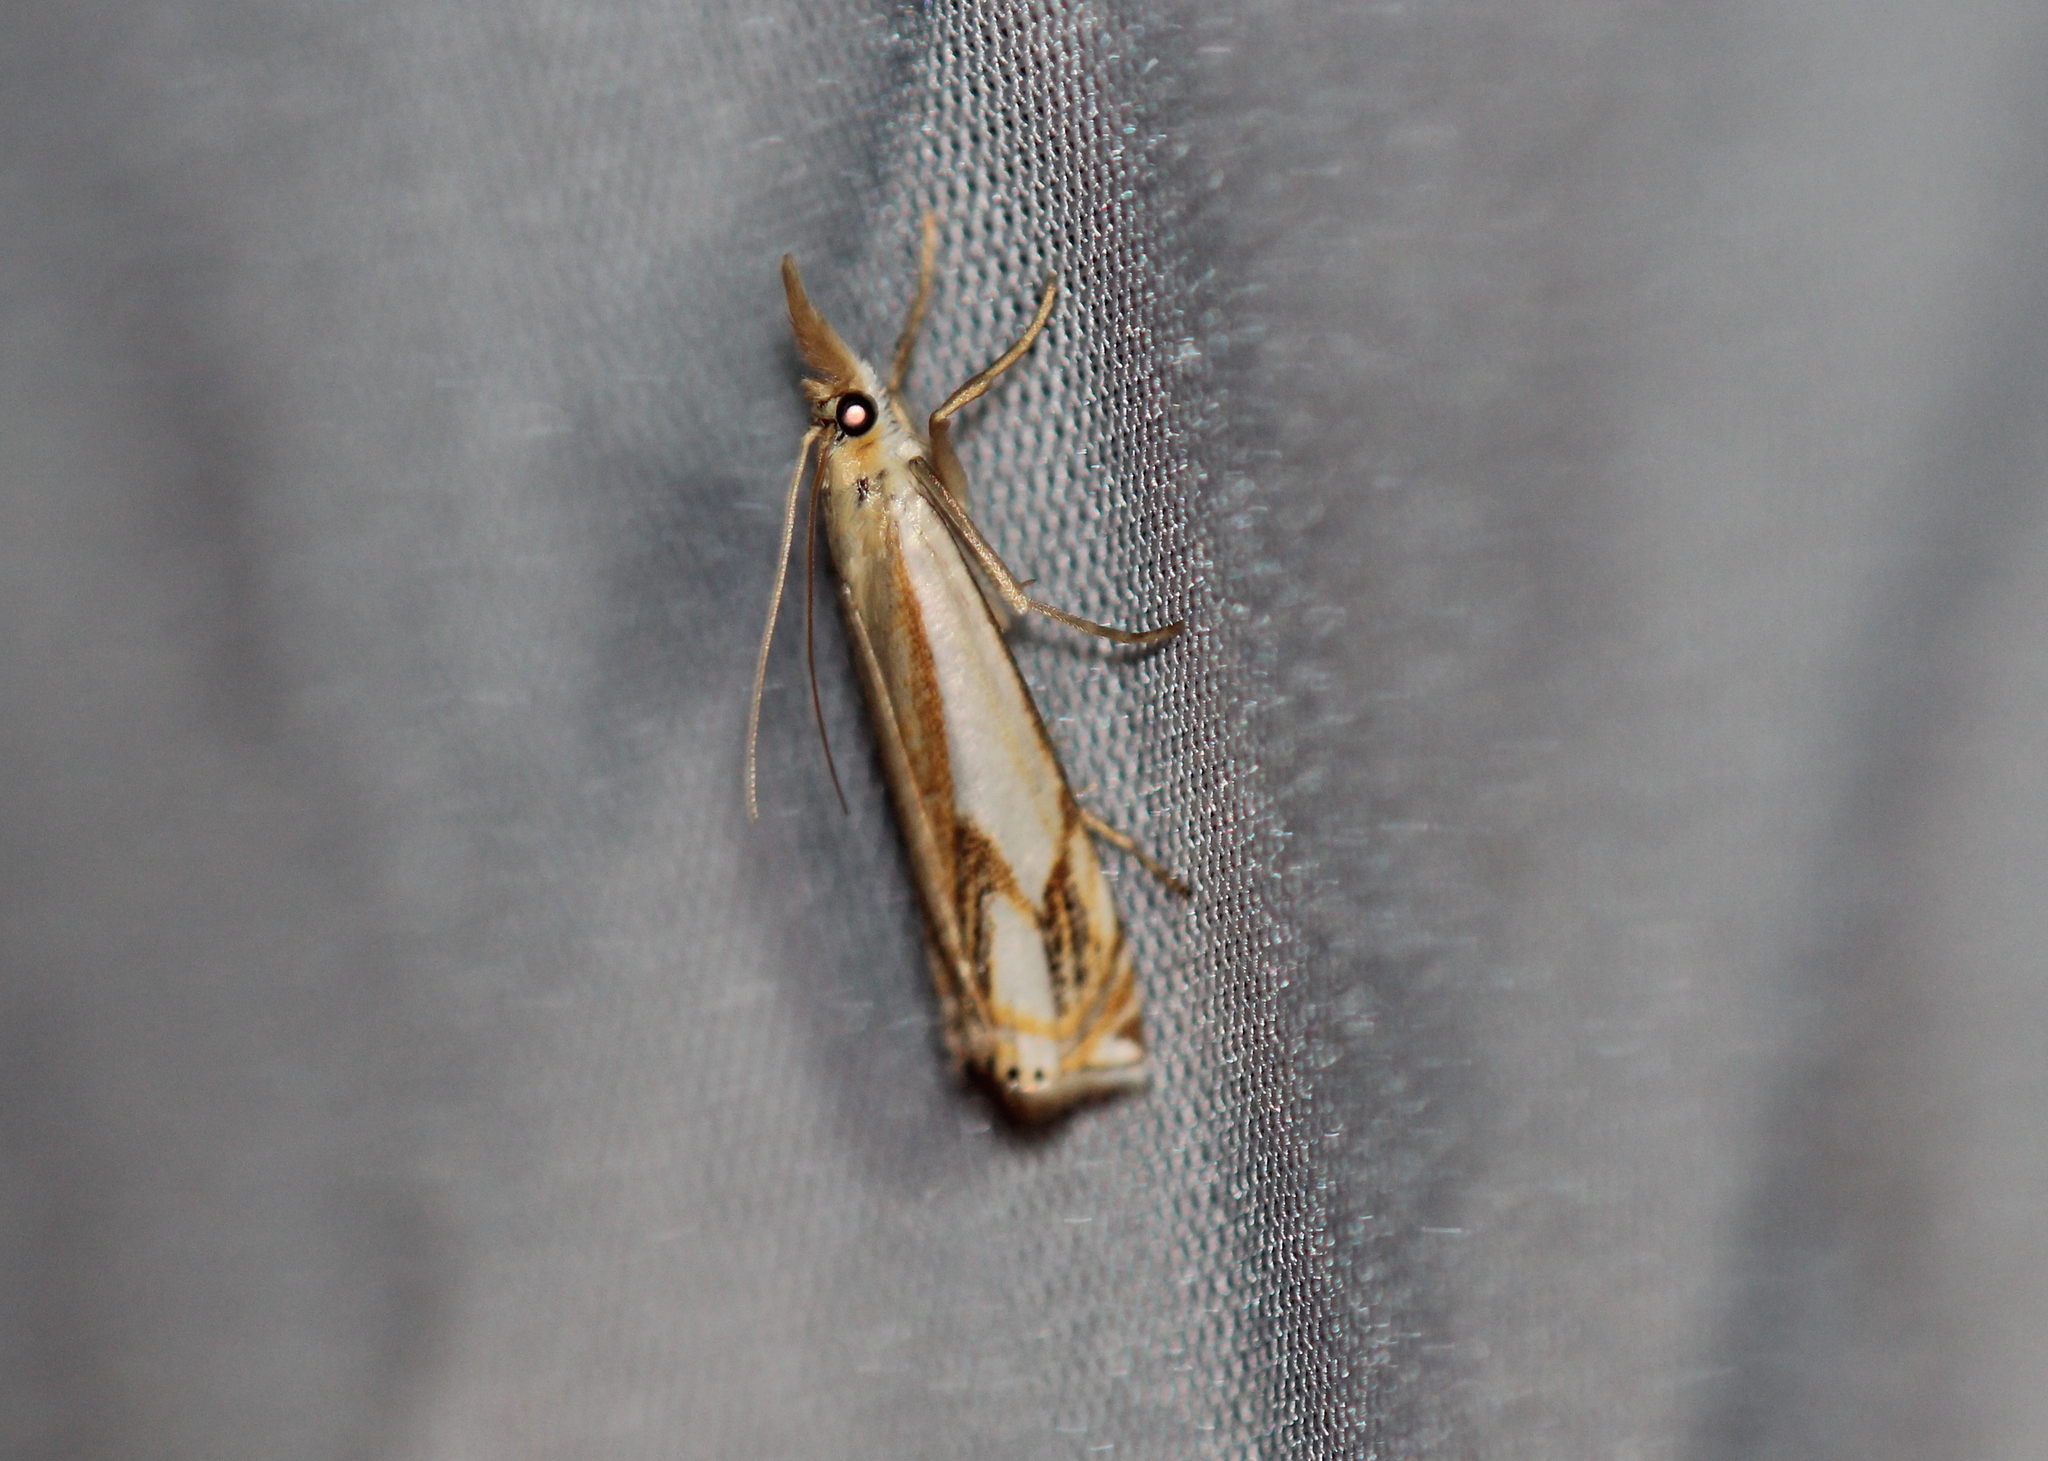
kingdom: Animalia
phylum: Arthropoda
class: Insecta
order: Lepidoptera
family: Crambidae
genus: Crambus
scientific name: Crambus agitatellus
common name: Double-banded grass-veneer
